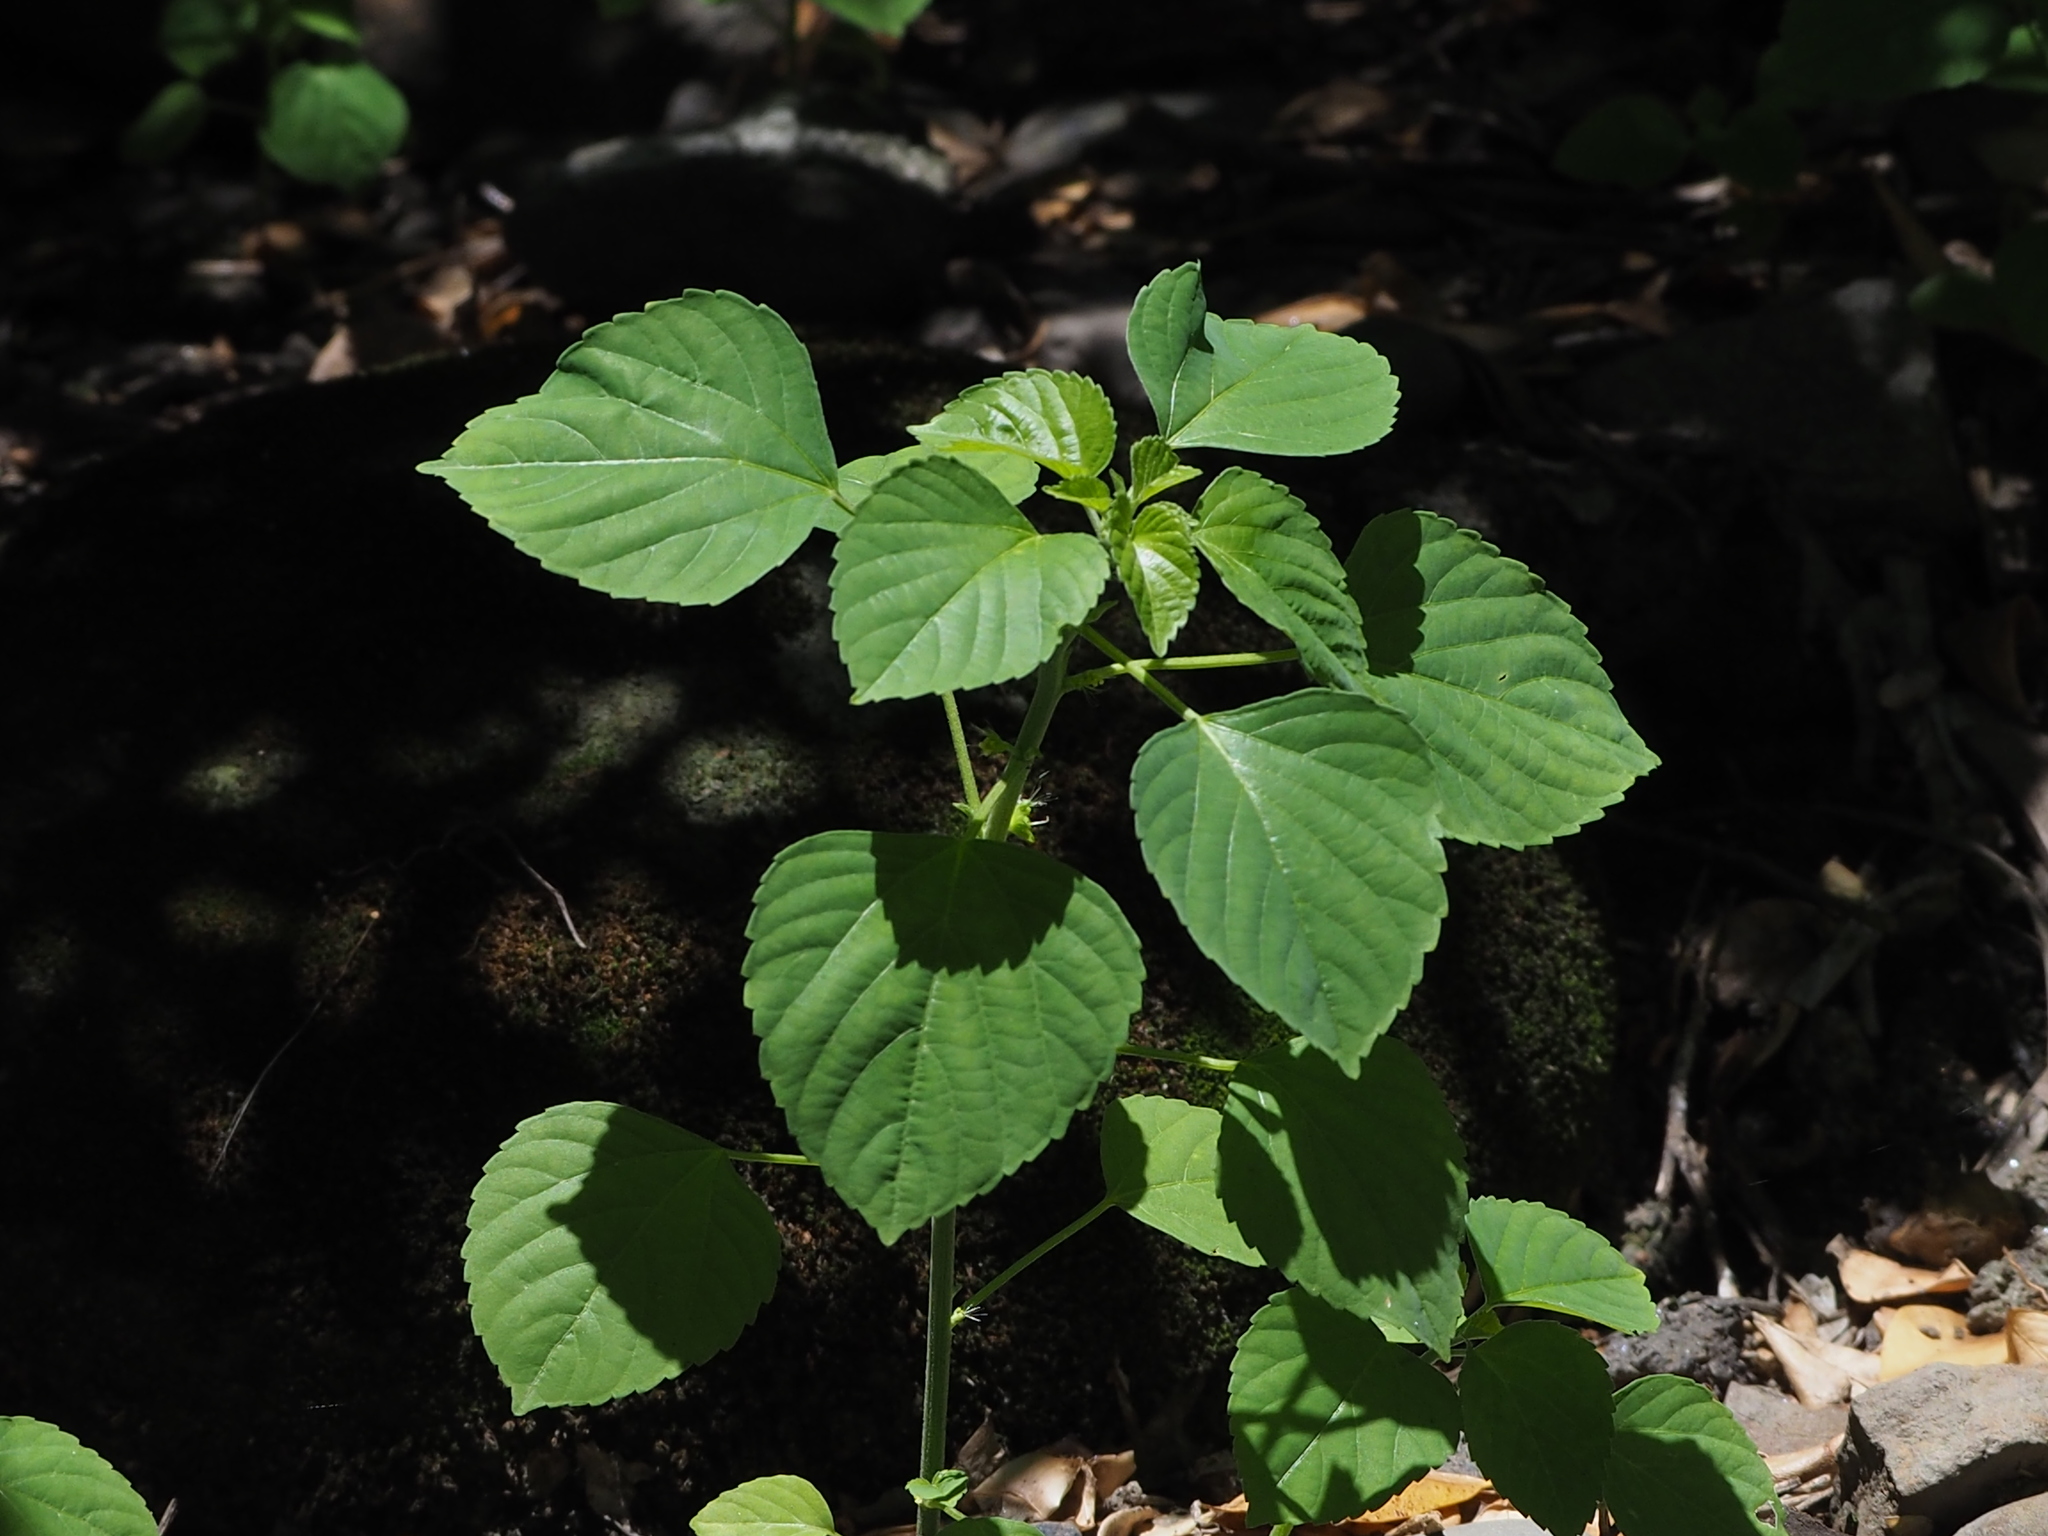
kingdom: Plantae
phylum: Tracheophyta
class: Magnoliopsida
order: Malpighiales
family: Euphorbiaceae
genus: Acalypha
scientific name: Acalypha indica
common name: Indian acalypha
